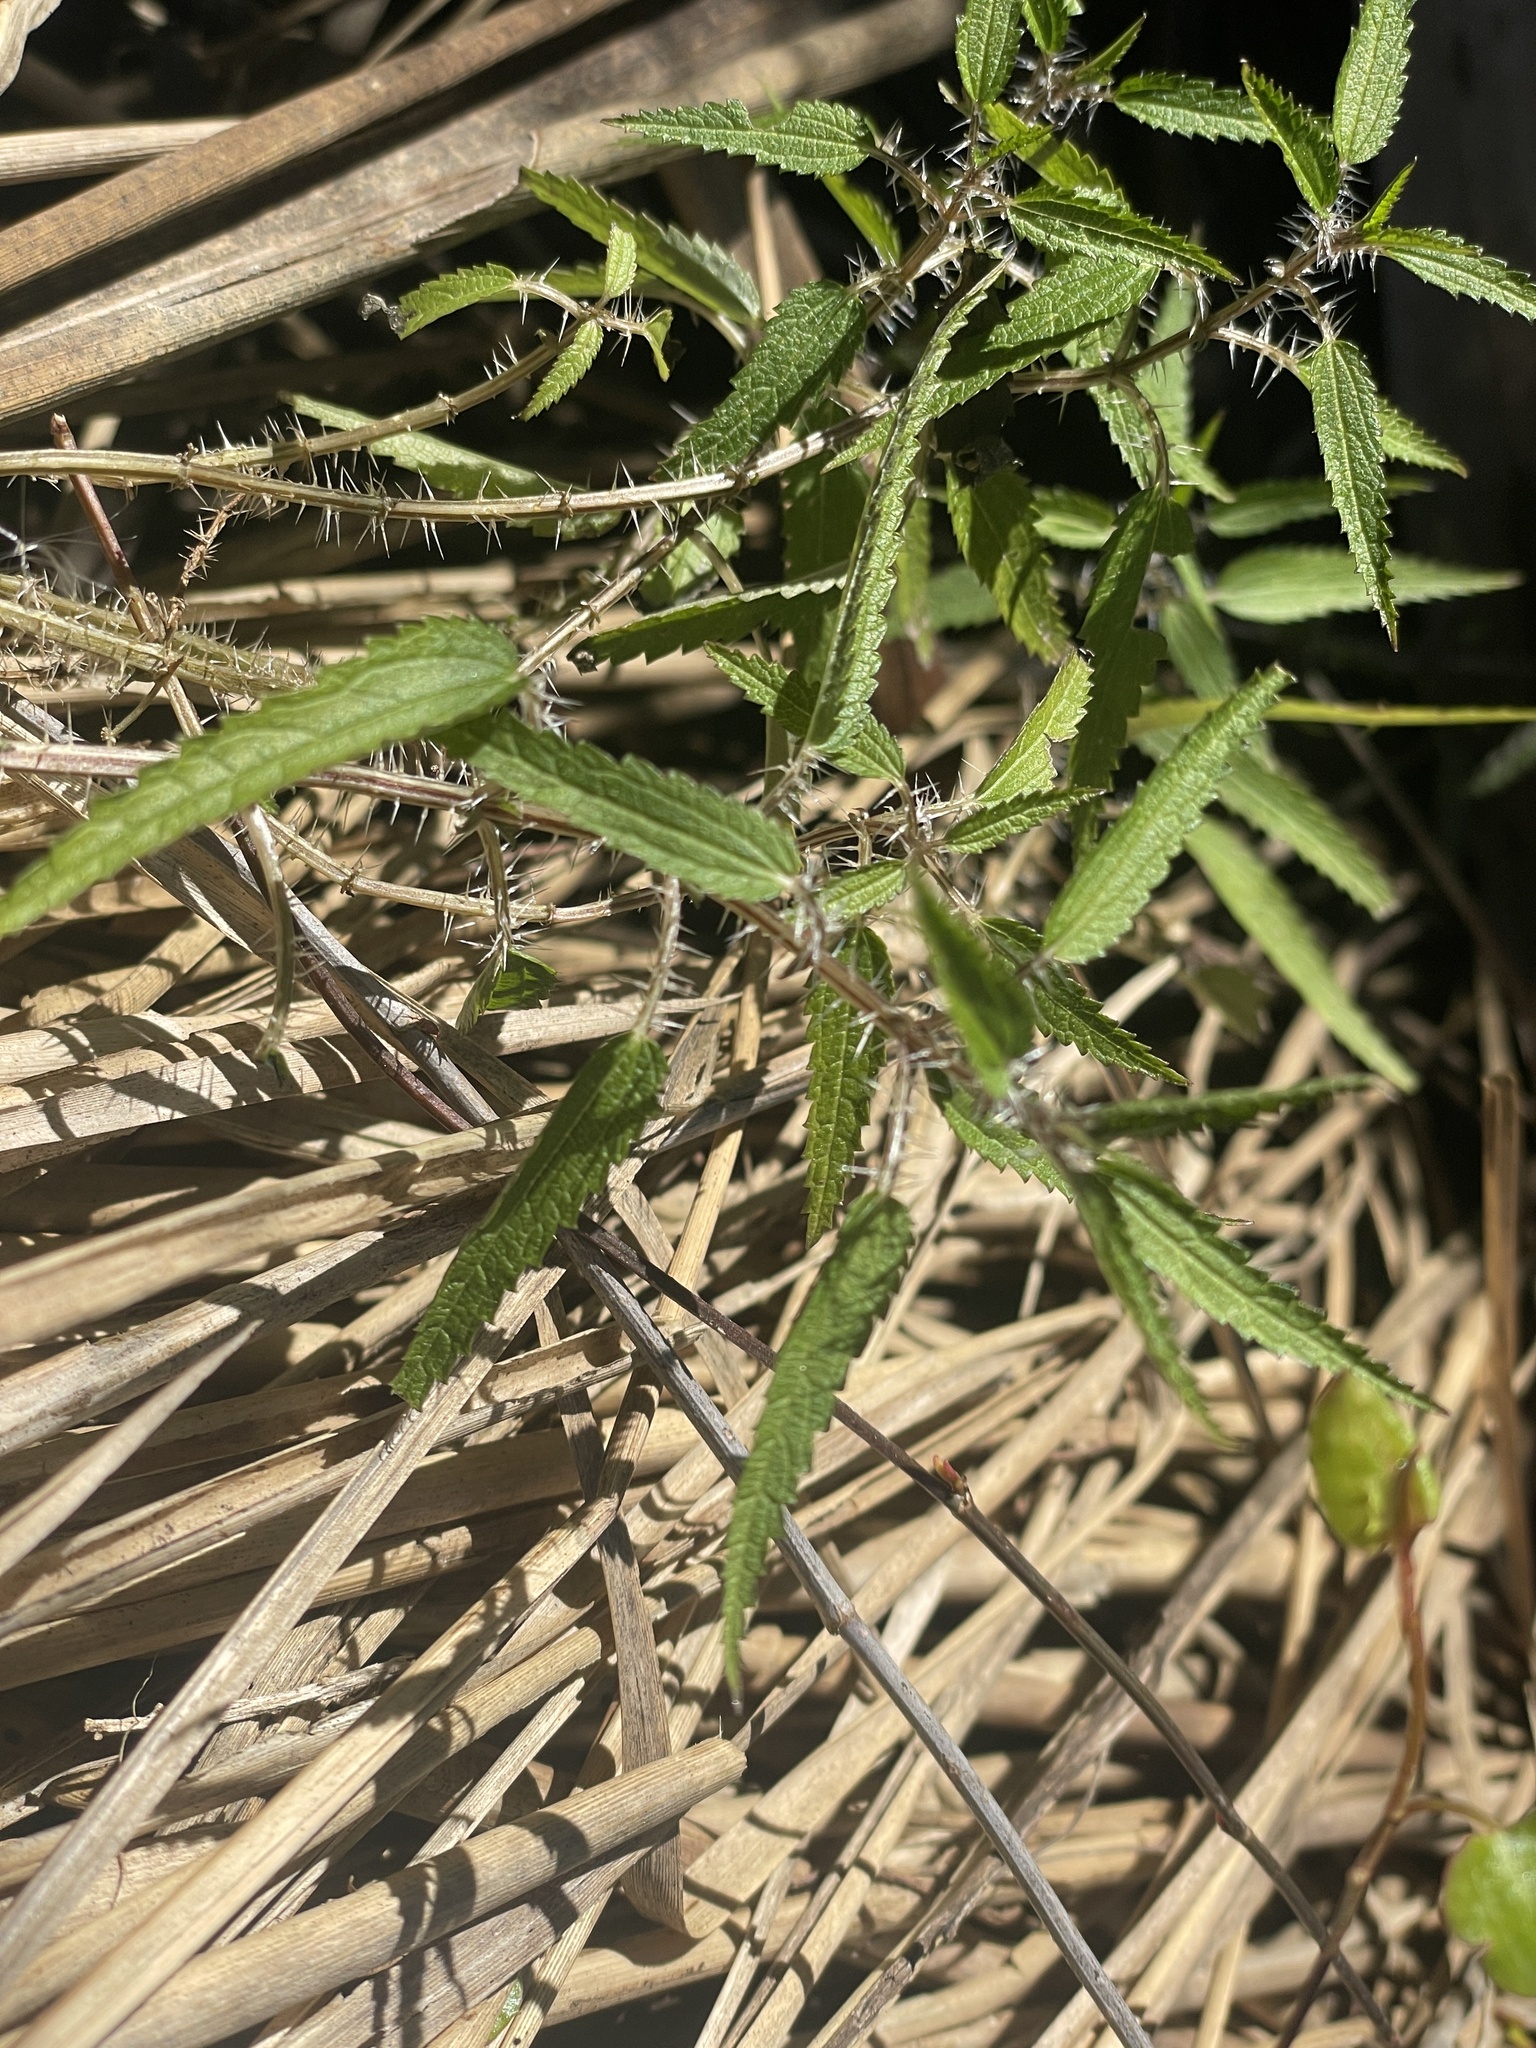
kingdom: Plantae
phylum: Tracheophyta
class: Magnoliopsida
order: Rosales
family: Urticaceae
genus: Urtica
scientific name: Urtica perconfusa
